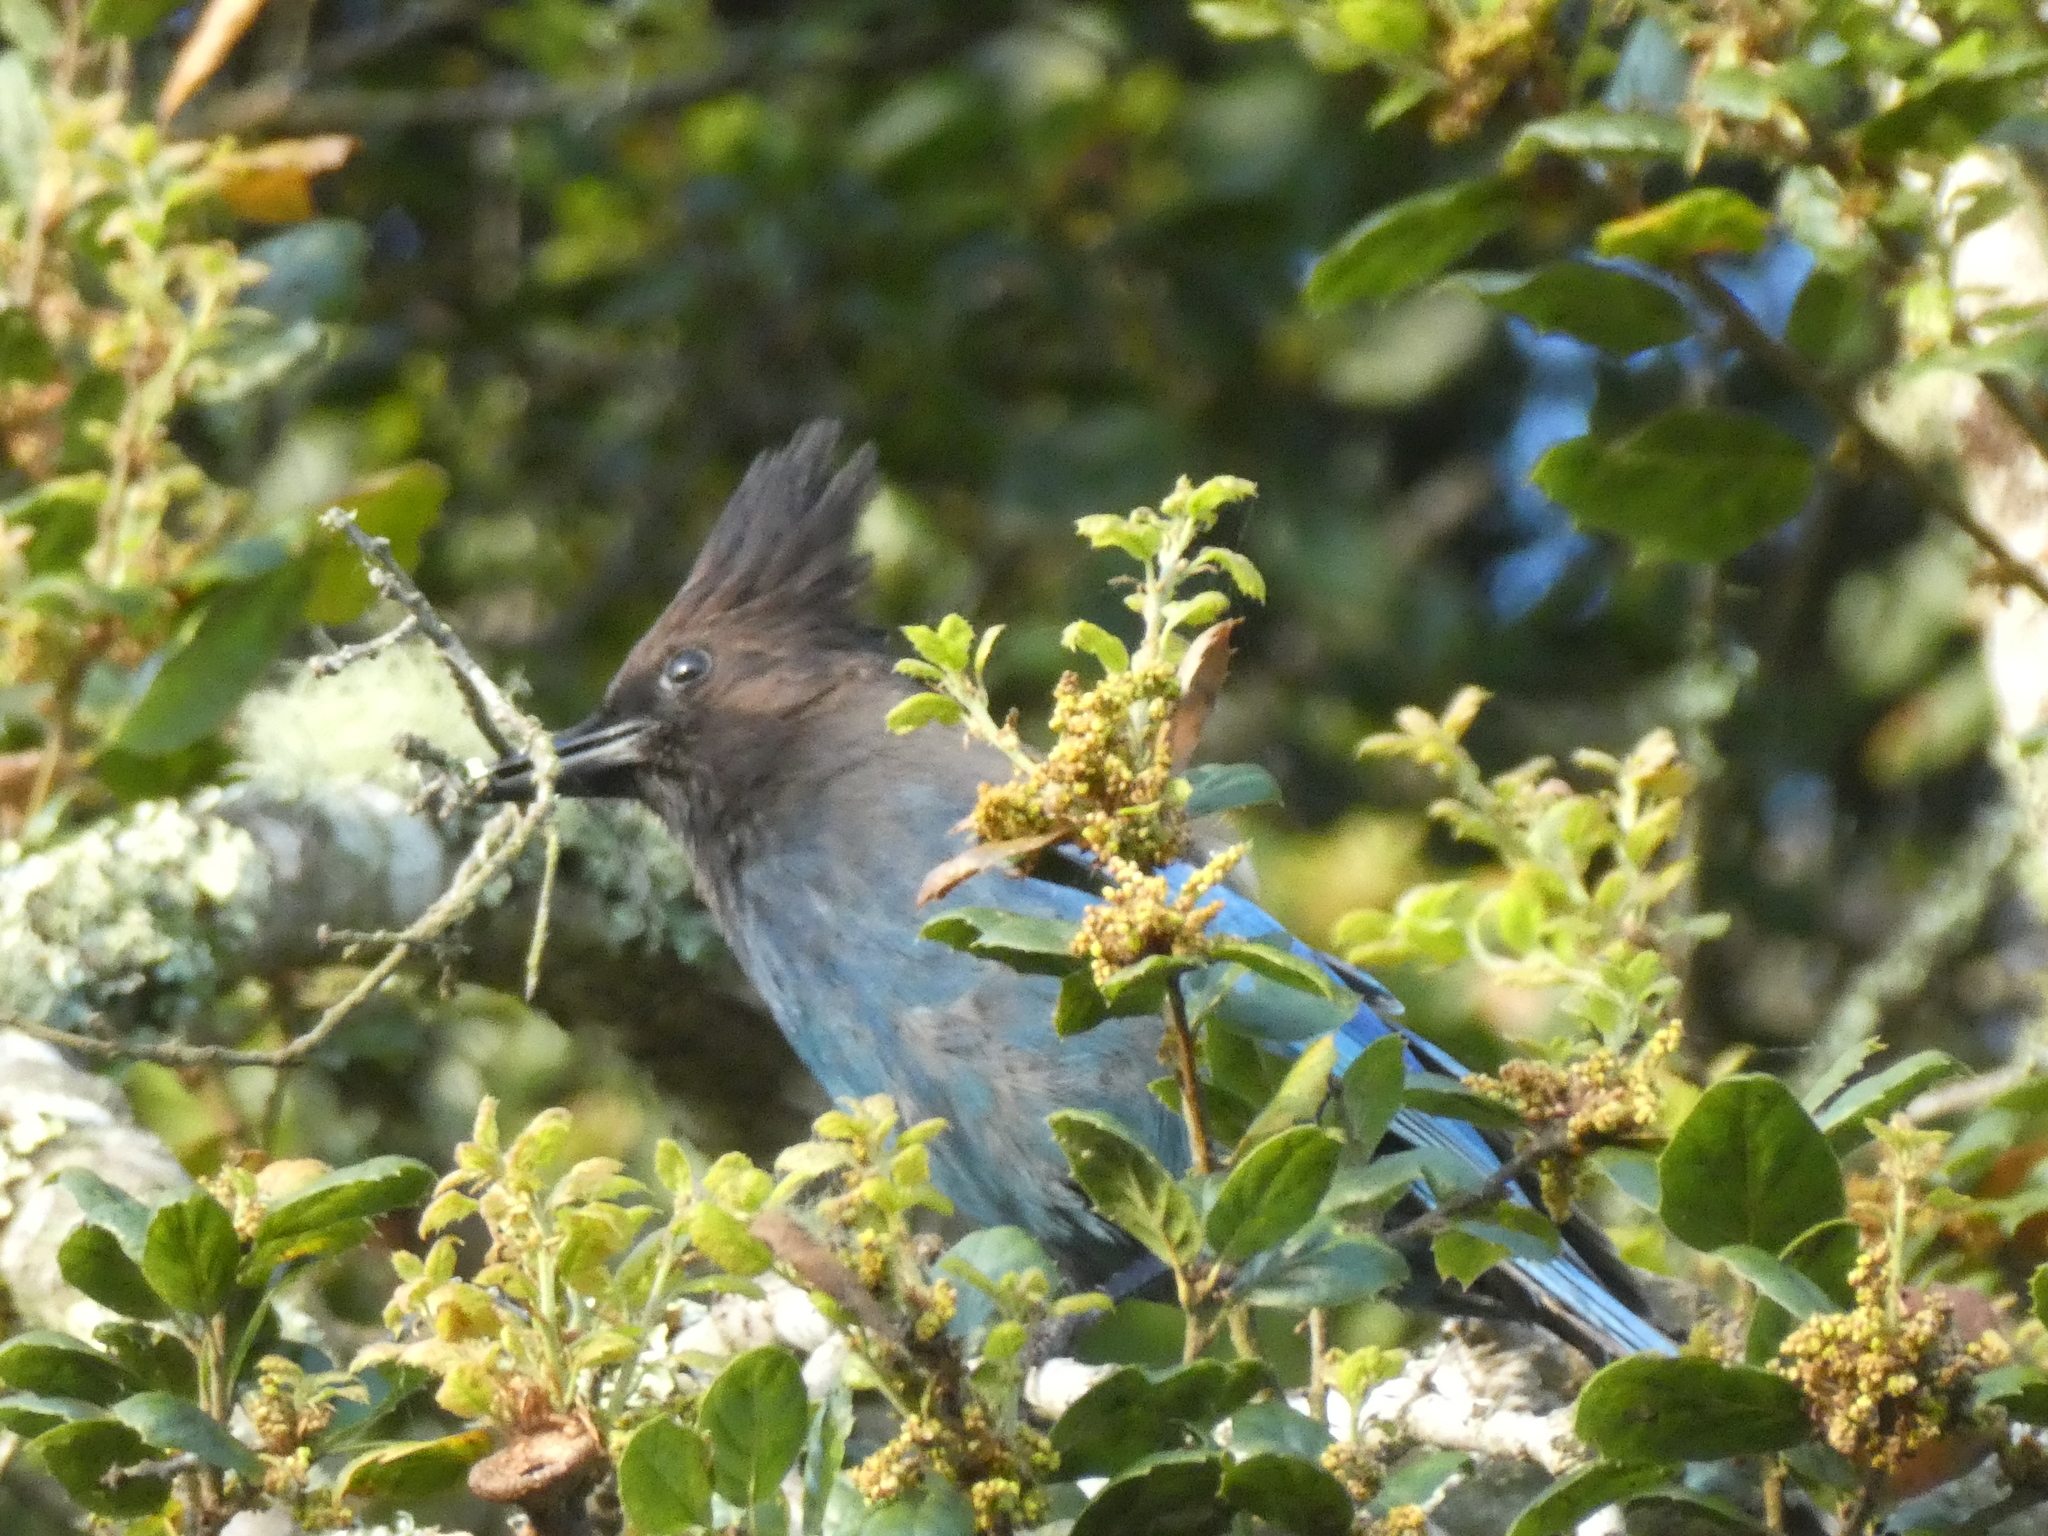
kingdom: Animalia
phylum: Chordata
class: Aves
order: Passeriformes
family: Corvidae
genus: Cyanocitta
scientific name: Cyanocitta stelleri
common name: Steller's jay
